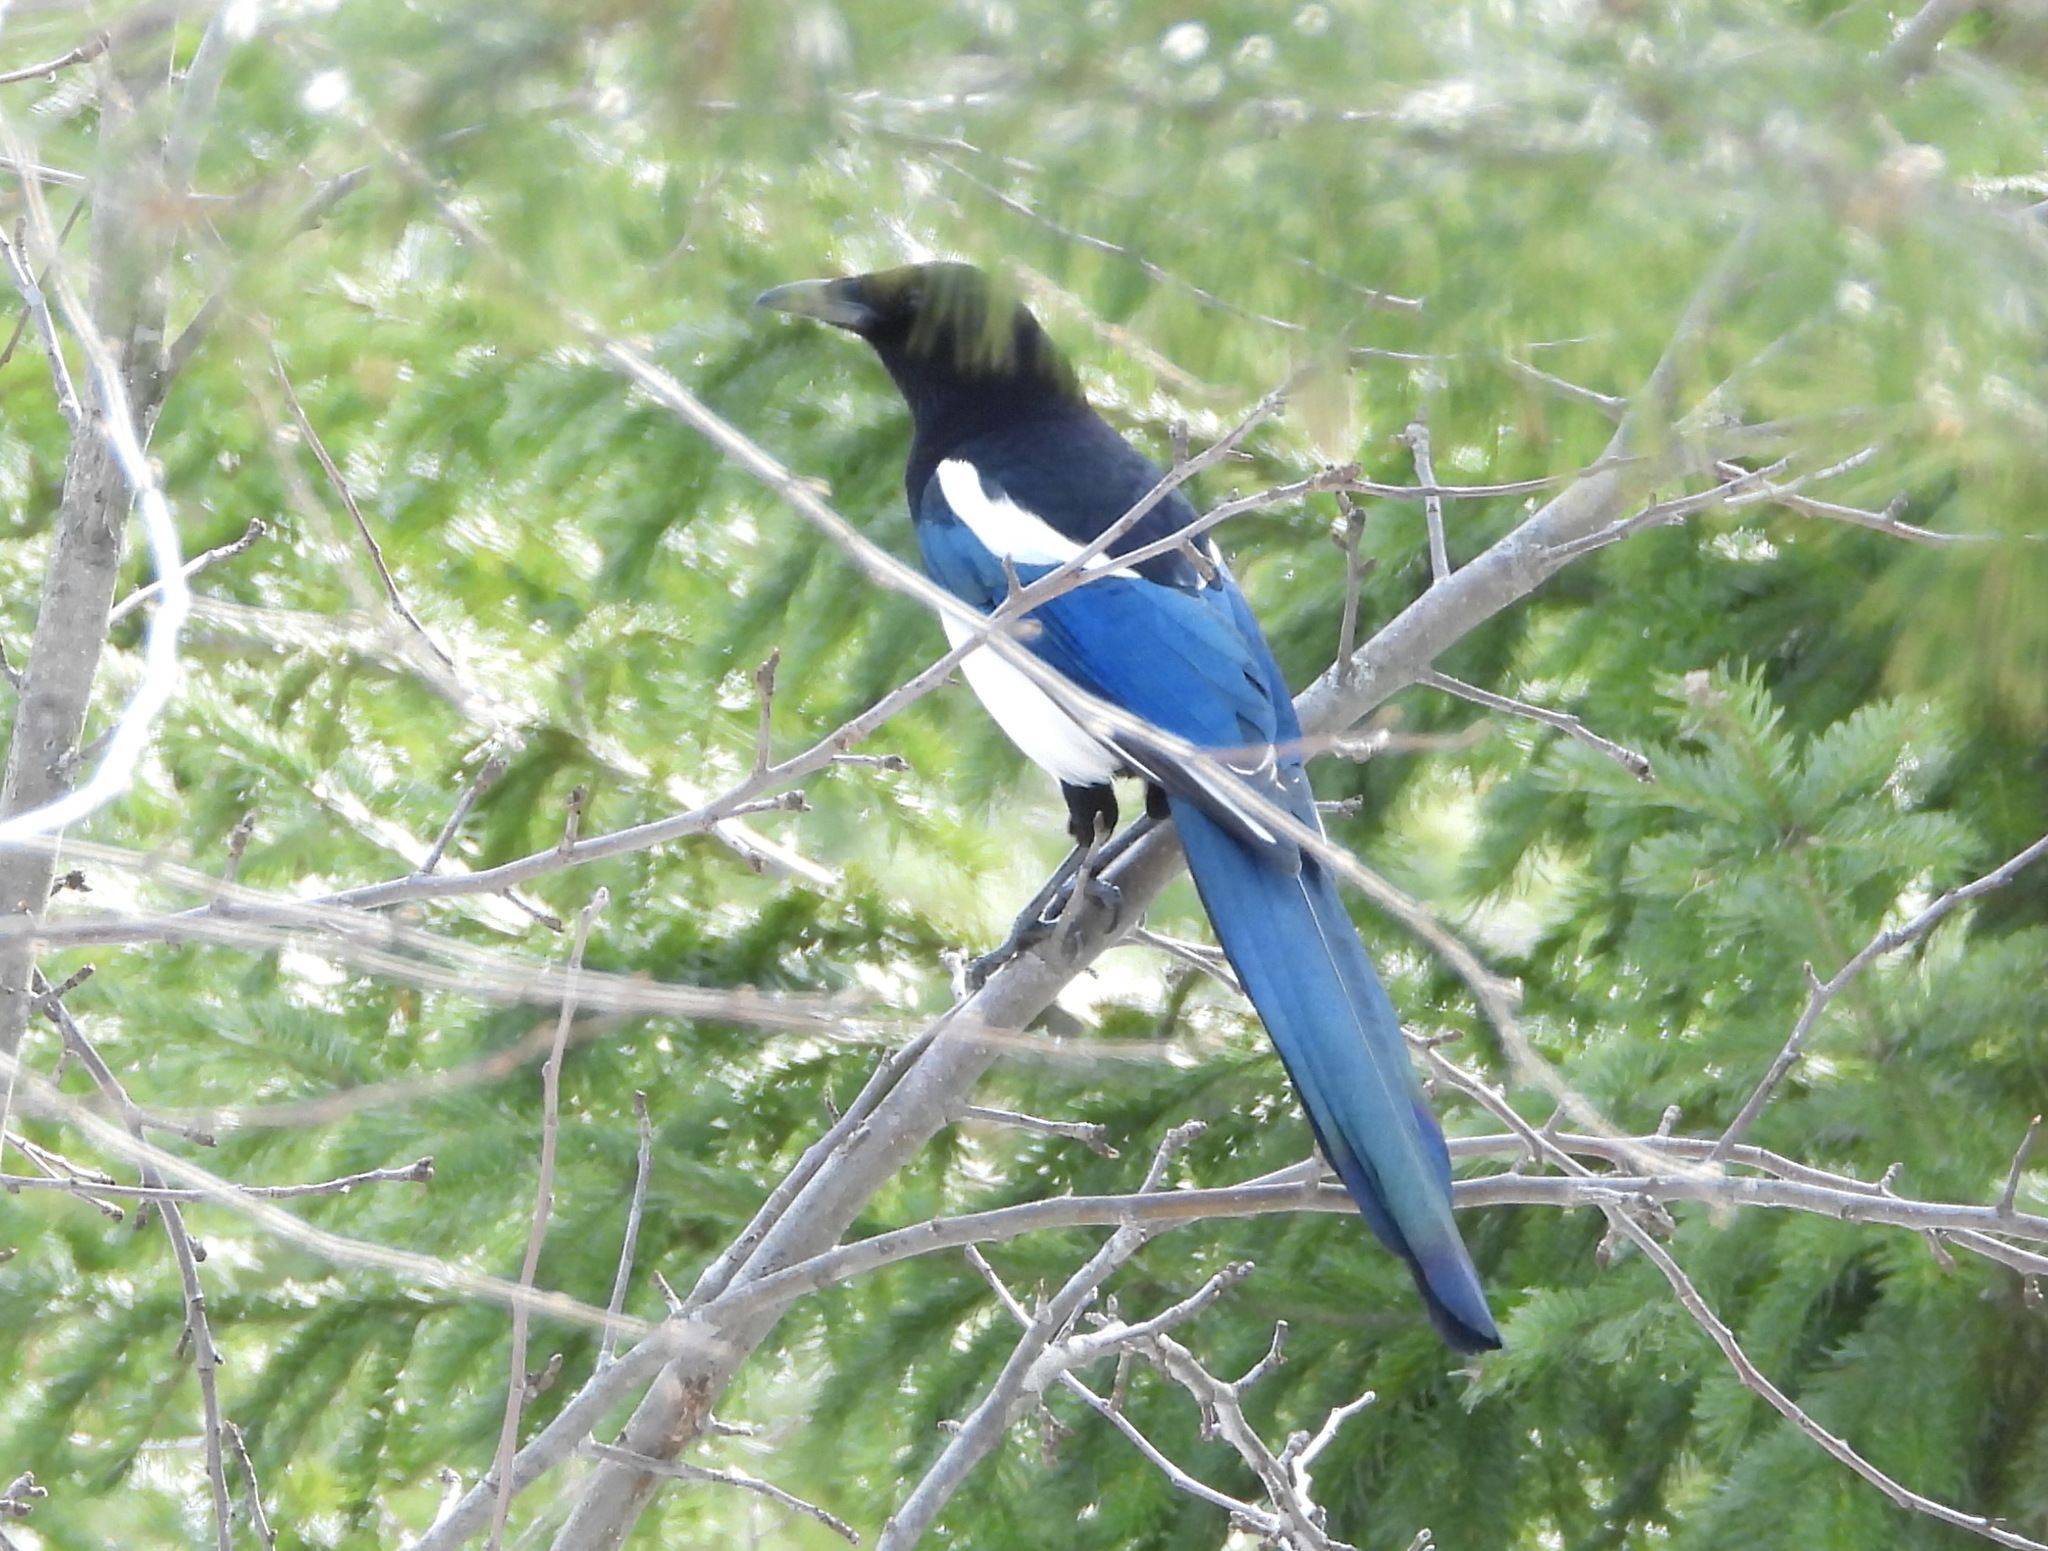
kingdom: Animalia
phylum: Chordata
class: Aves
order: Passeriformes
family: Corvidae
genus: Pica
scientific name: Pica pica
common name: Eurasian magpie
